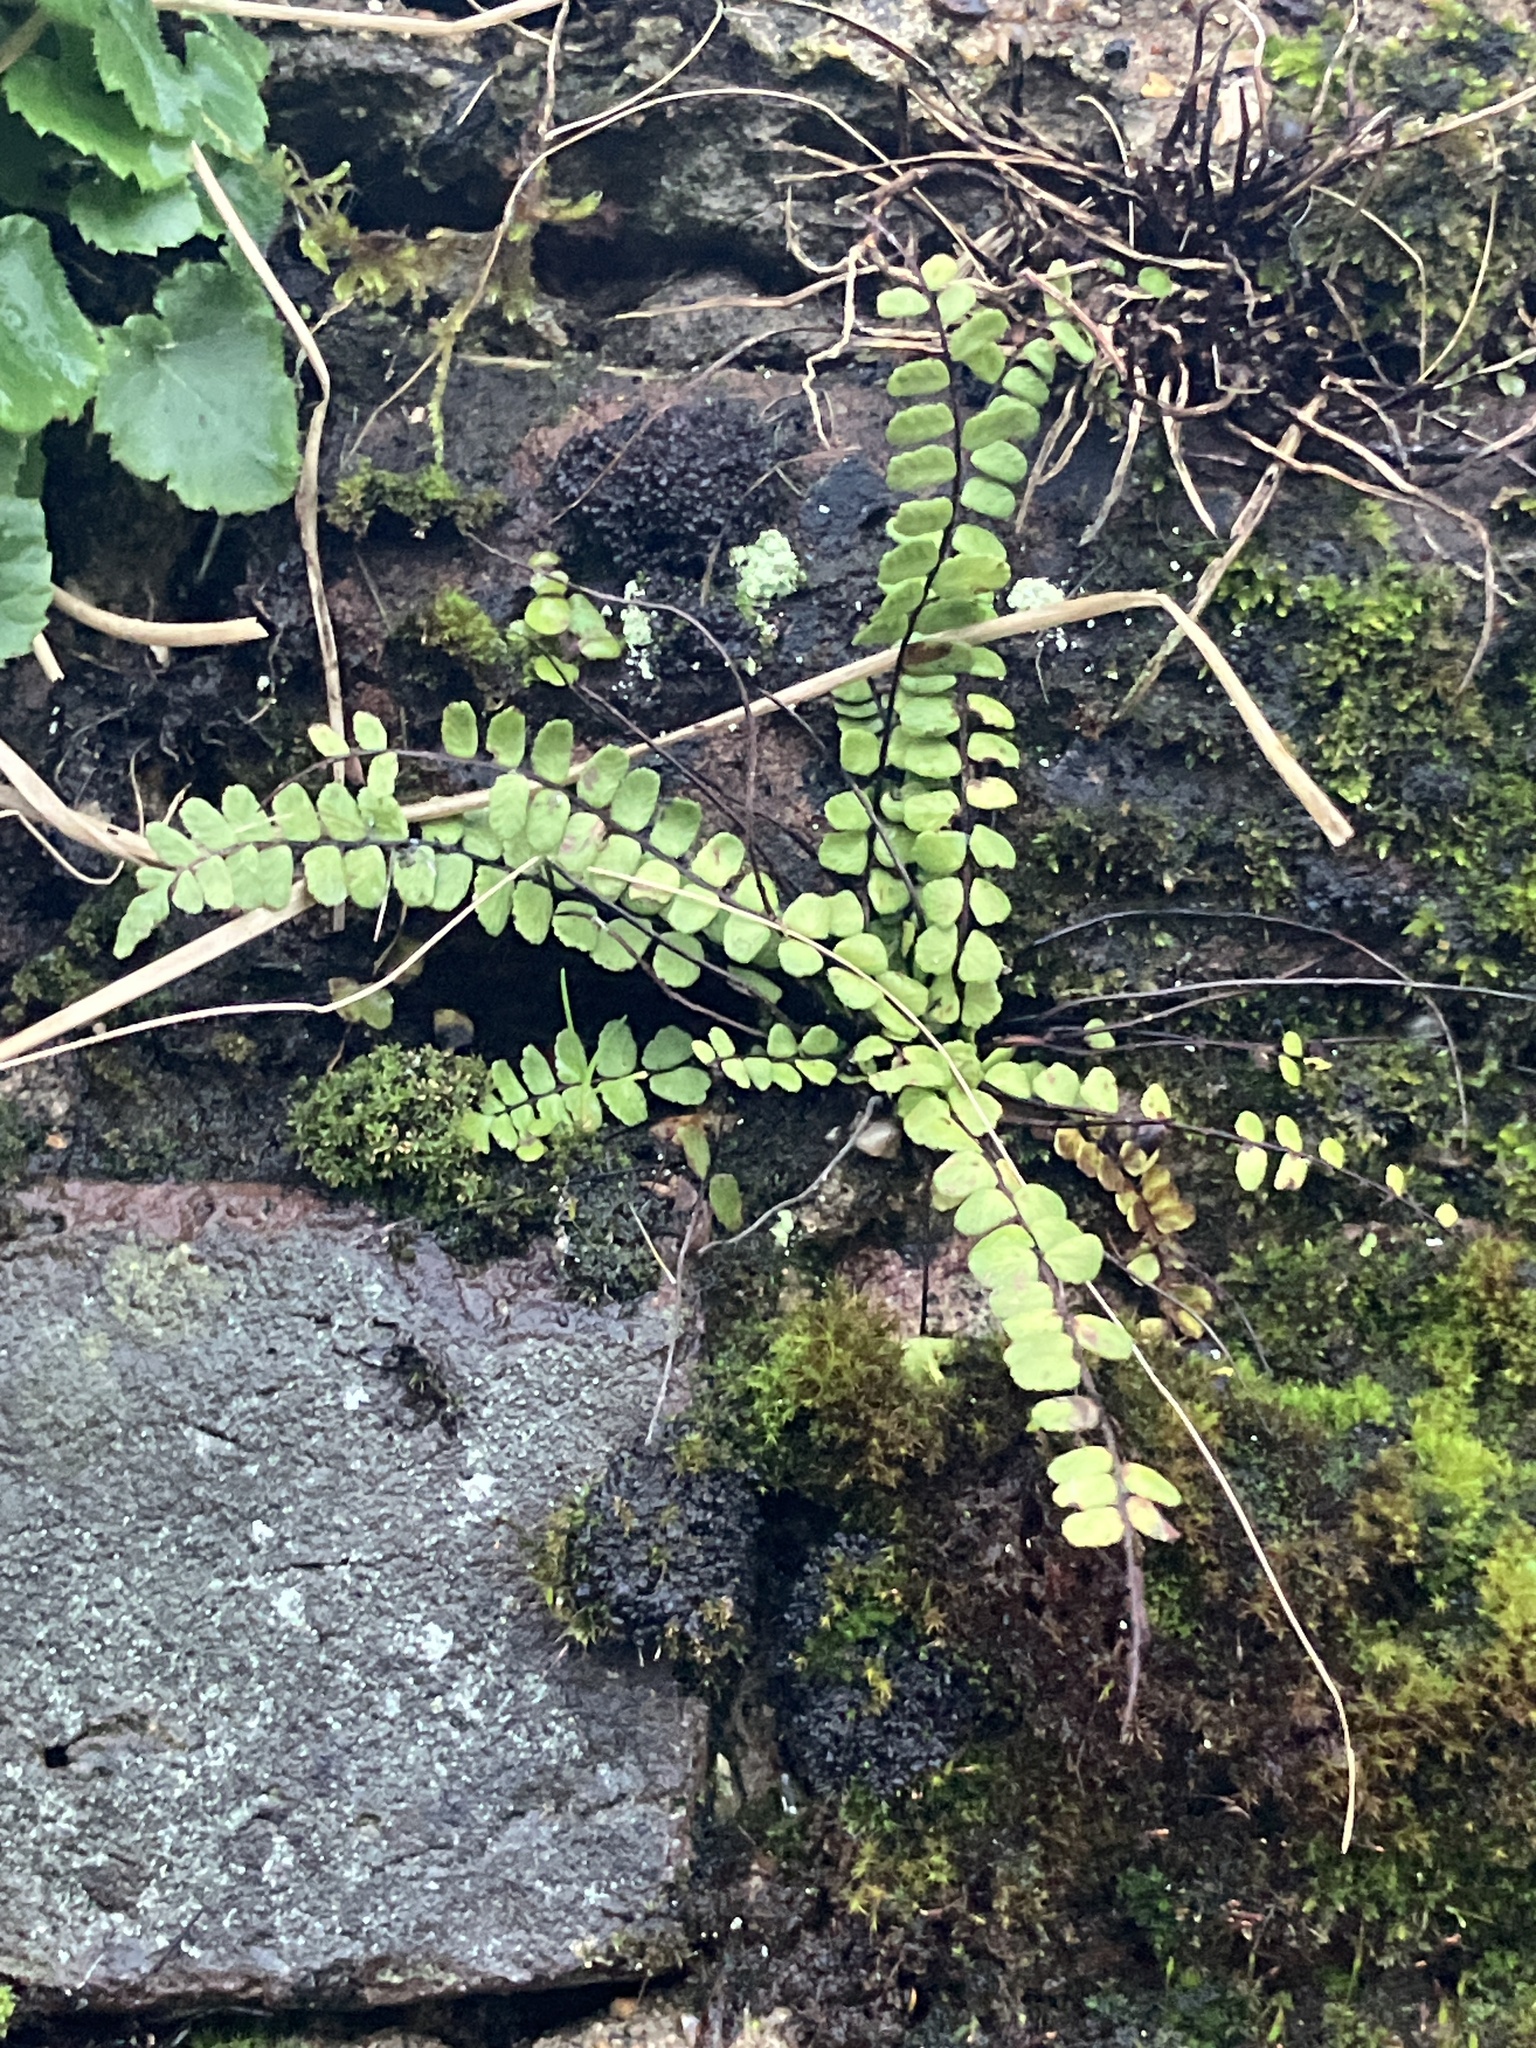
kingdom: Plantae
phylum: Tracheophyta
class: Polypodiopsida
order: Polypodiales
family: Aspleniaceae
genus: Asplenium
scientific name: Asplenium trichomanes
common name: Maidenhair spleenwort
